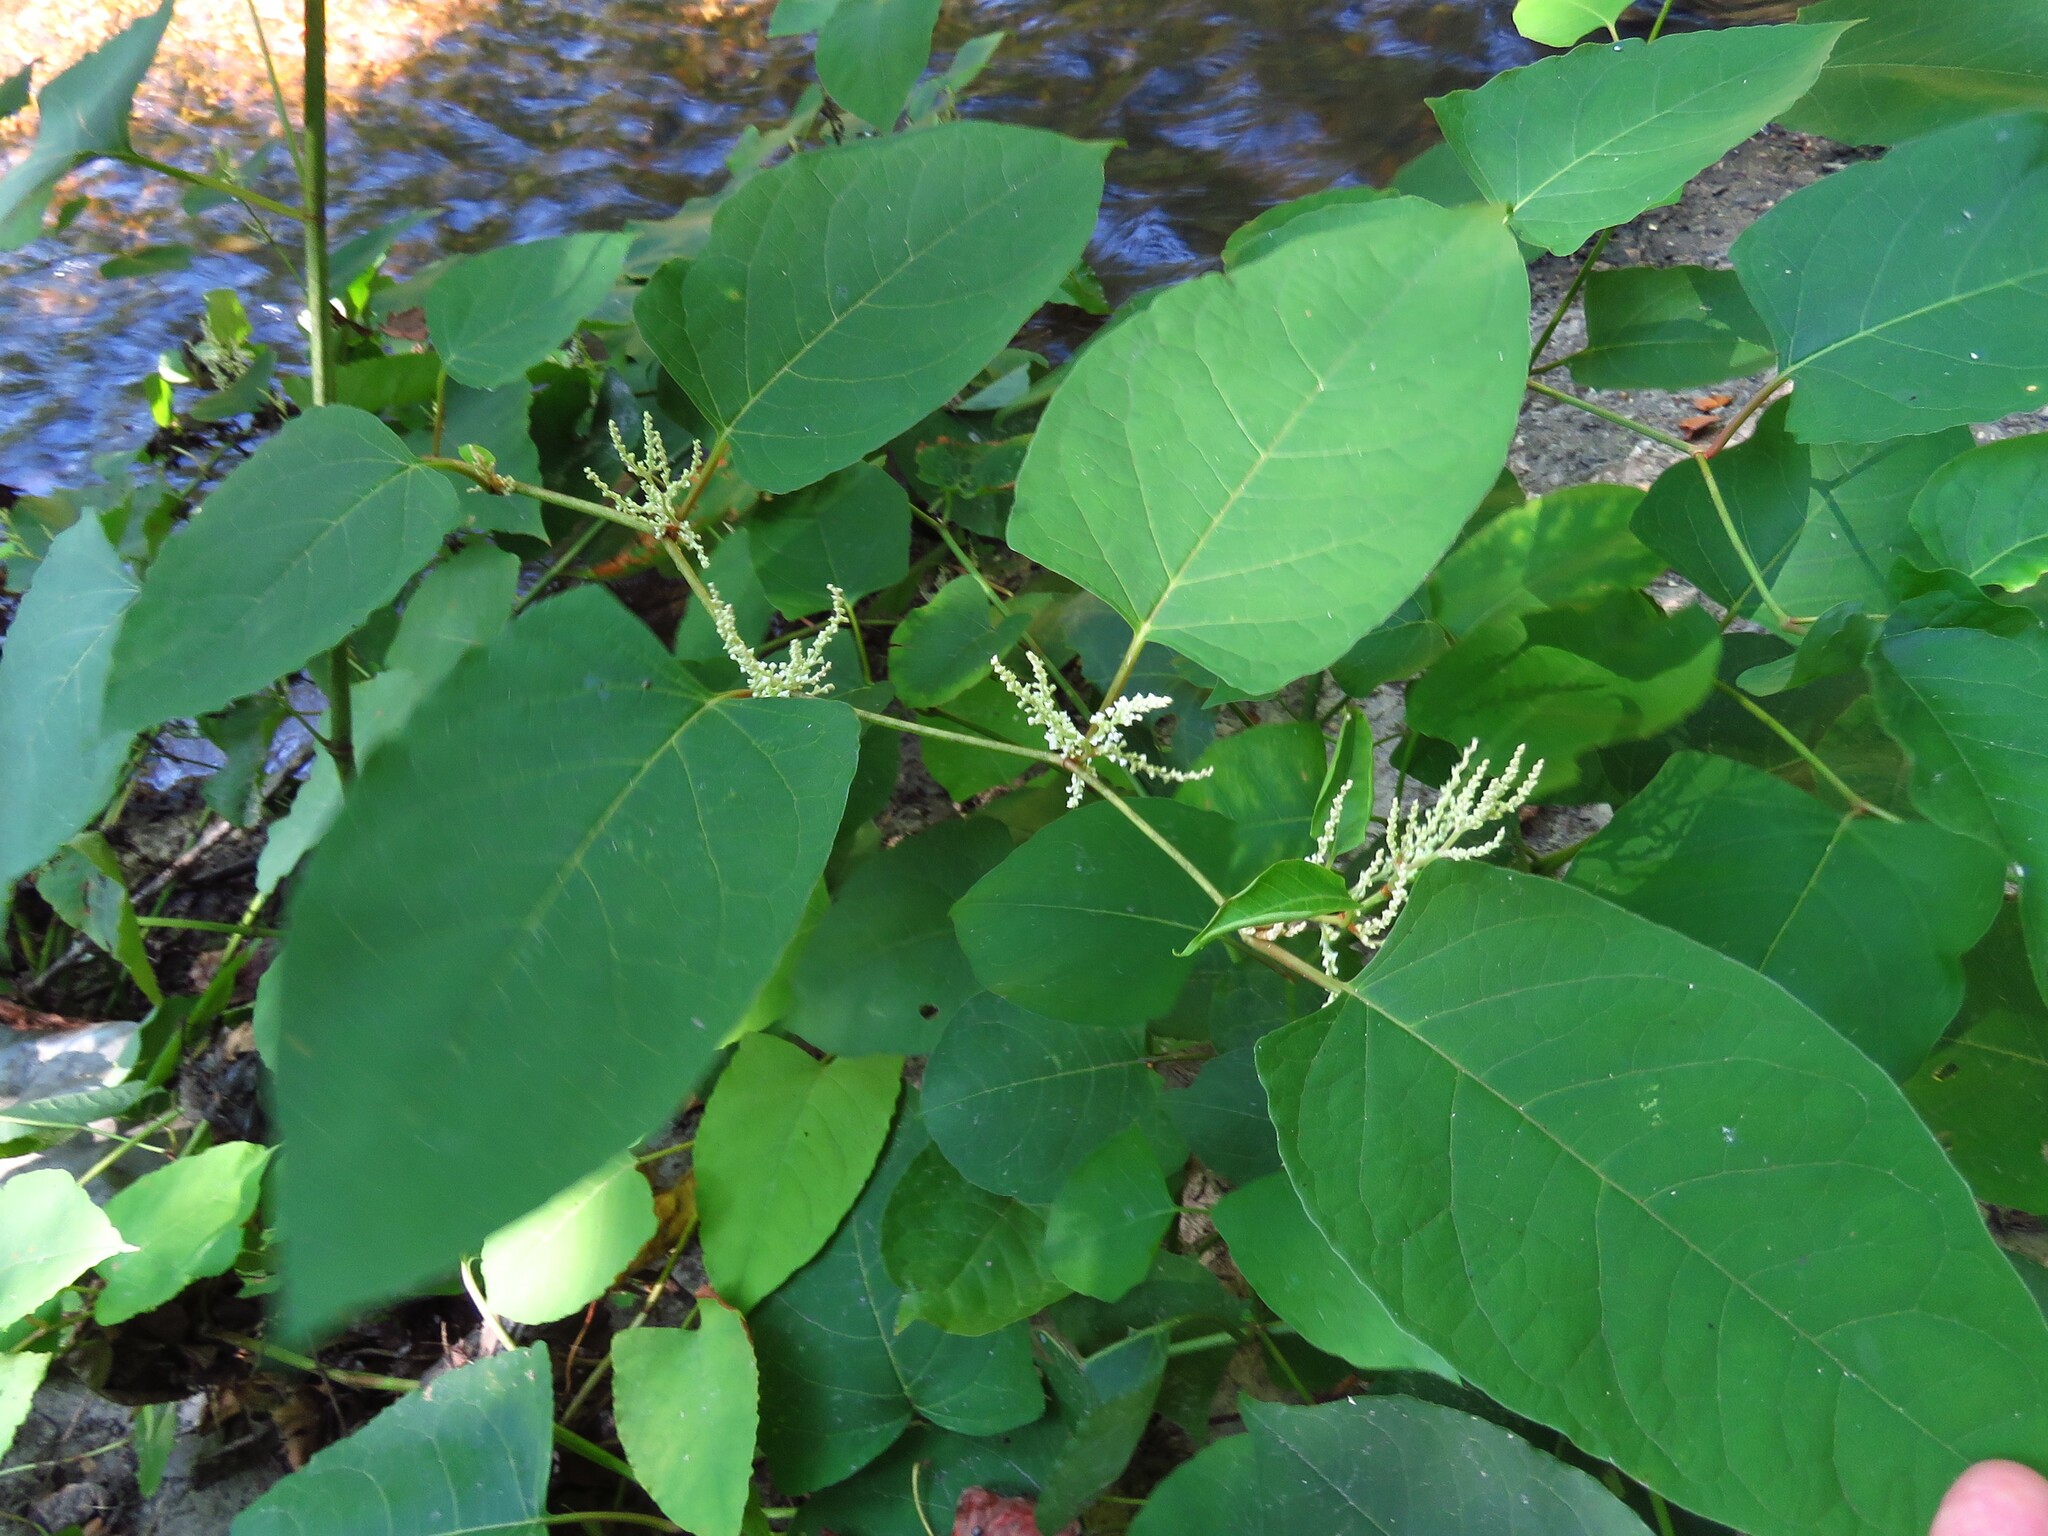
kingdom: Plantae
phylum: Tracheophyta
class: Magnoliopsida
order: Caryophyllales
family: Polygonaceae
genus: Reynoutria
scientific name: Reynoutria japonica
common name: Japanese knotweed
